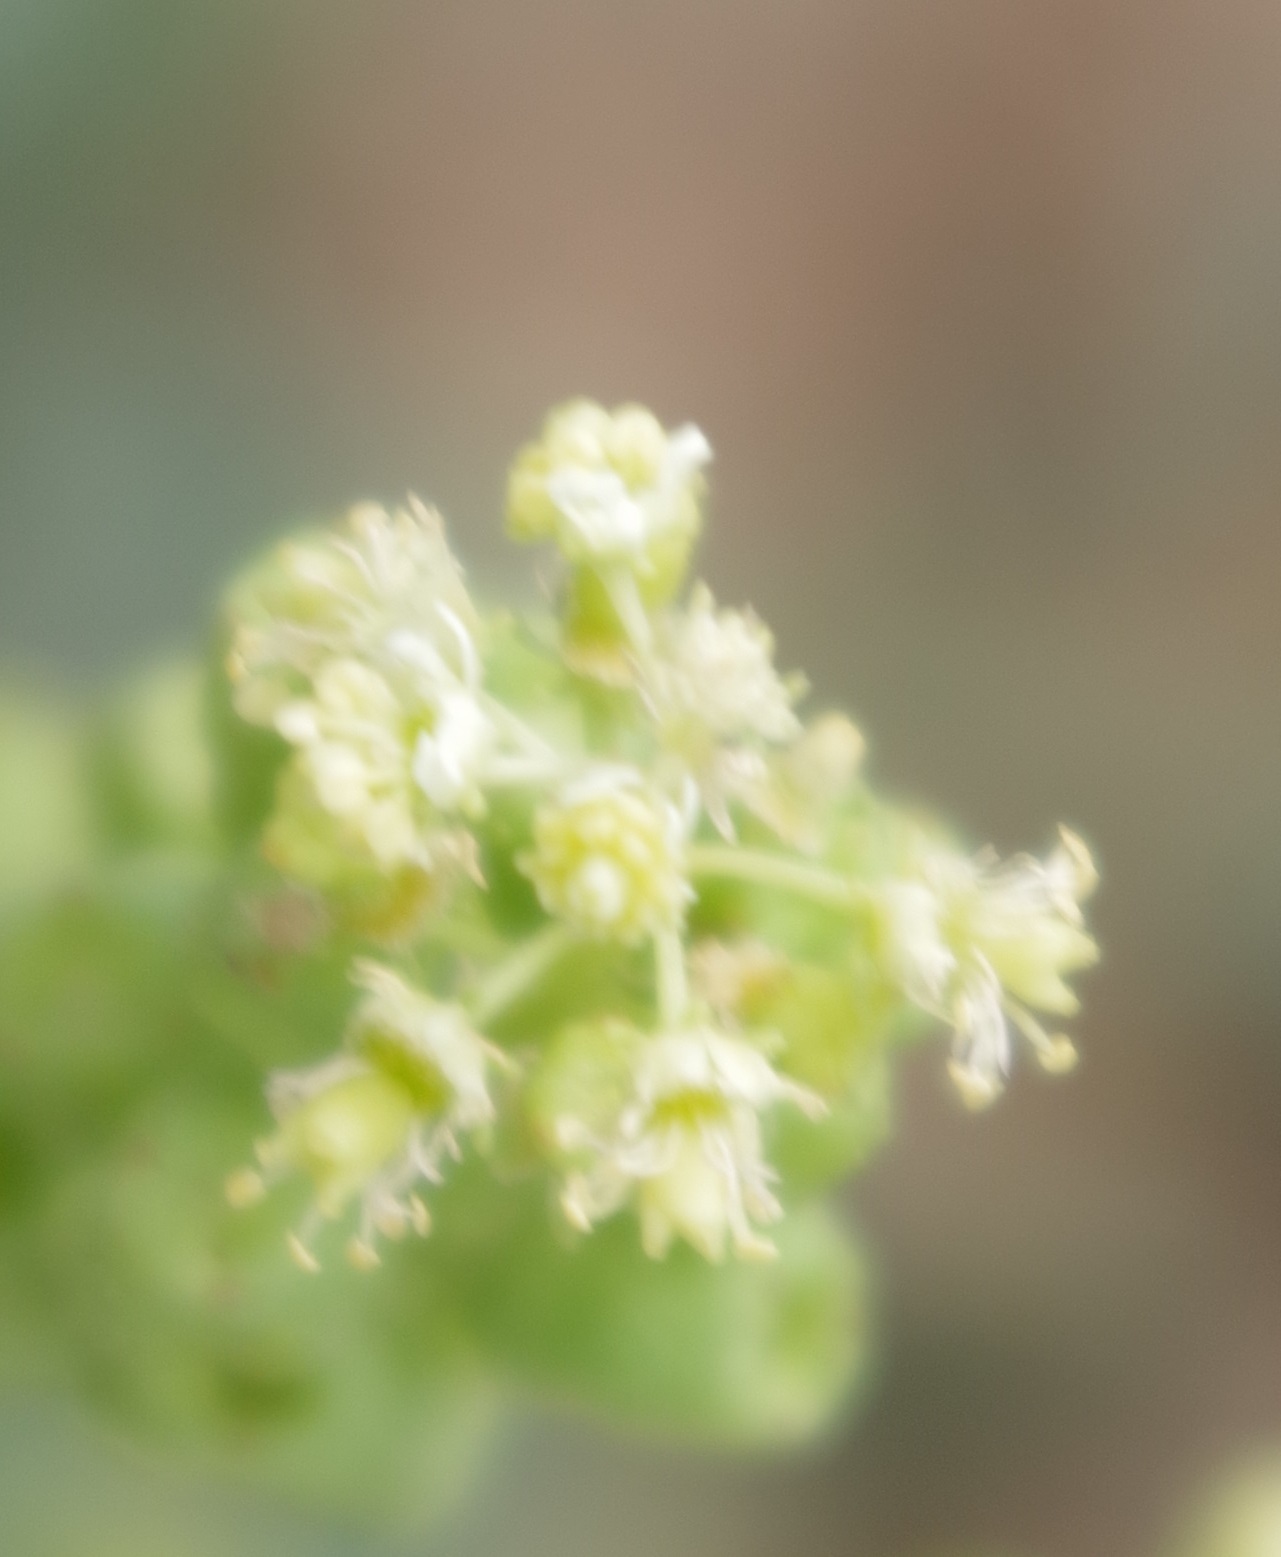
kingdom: Plantae
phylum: Tracheophyta
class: Magnoliopsida
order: Brassicales
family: Resedaceae
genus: Reseda
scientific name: Reseda lutea
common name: Wild mignonette
